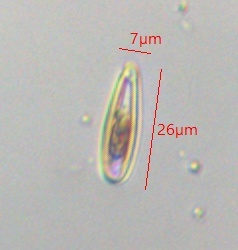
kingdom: Chromista
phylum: Ochrophyta
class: Bacillariophyceae
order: Cymbellales
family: Rhoicospheniaceae
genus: Rhoicosphenia
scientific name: Rhoicosphenia abbreviata
